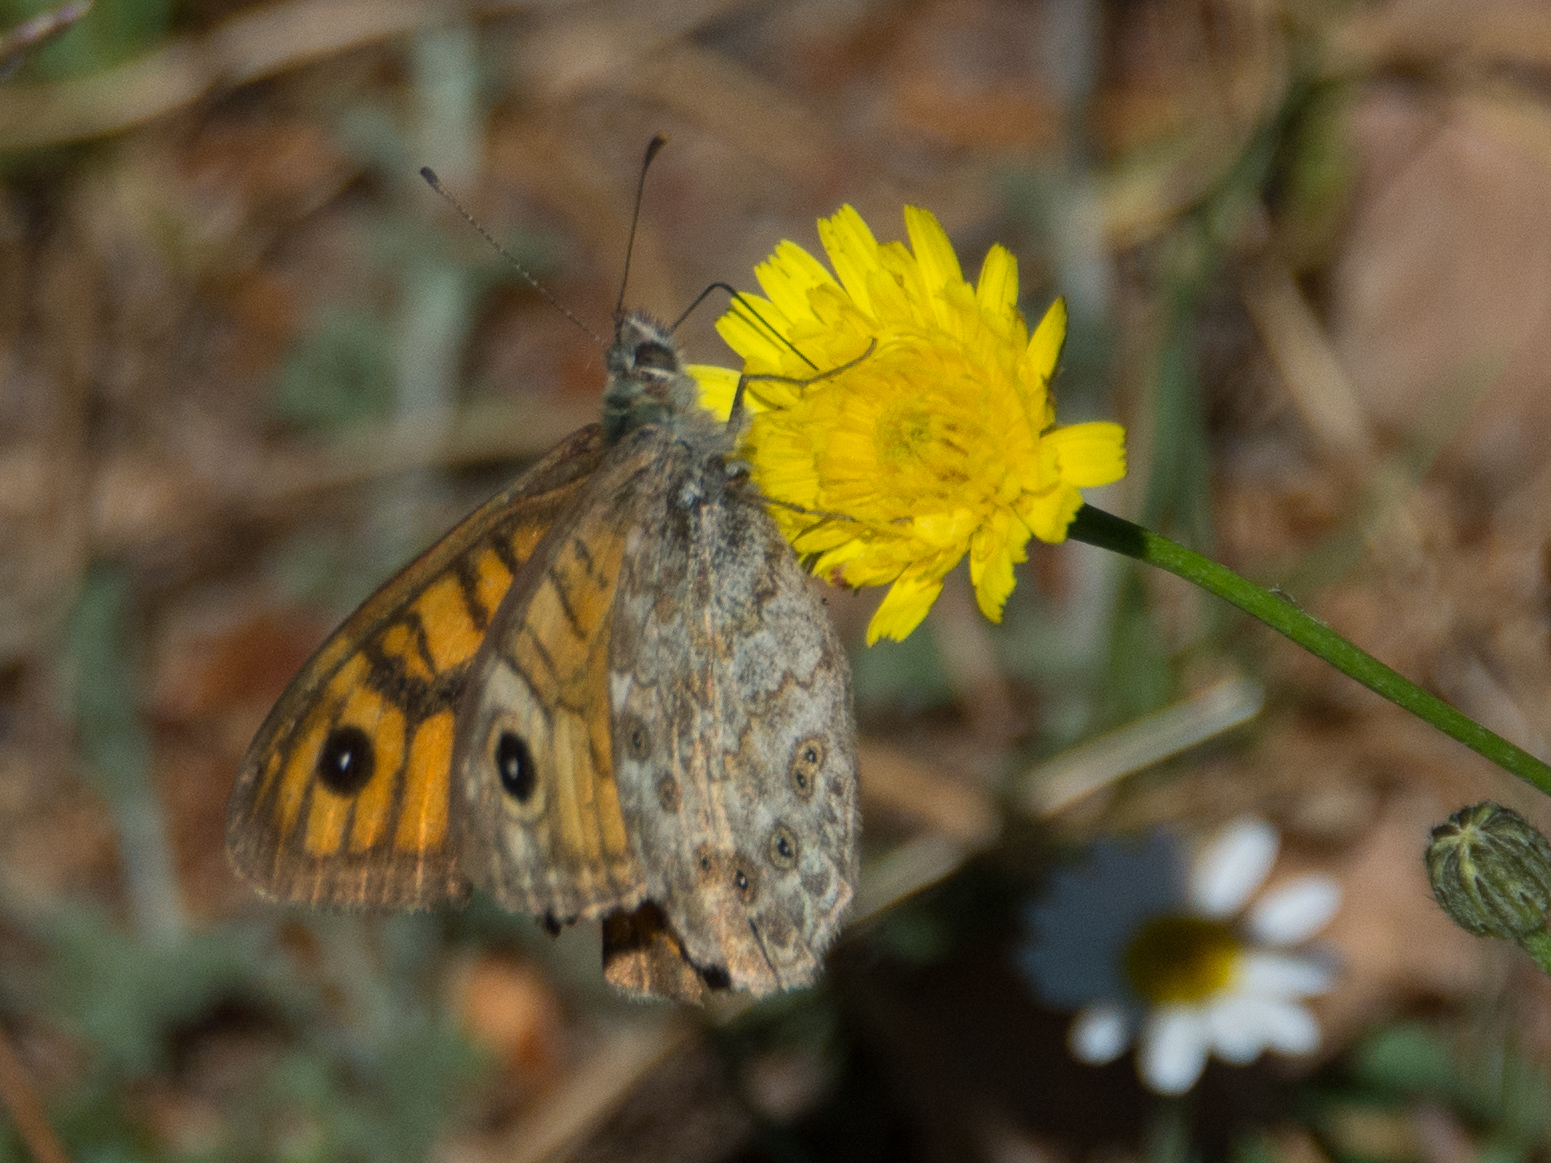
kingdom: Animalia
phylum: Arthropoda
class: Insecta
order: Lepidoptera
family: Nymphalidae
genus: Pararge
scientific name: Pararge Lasiommata megera
